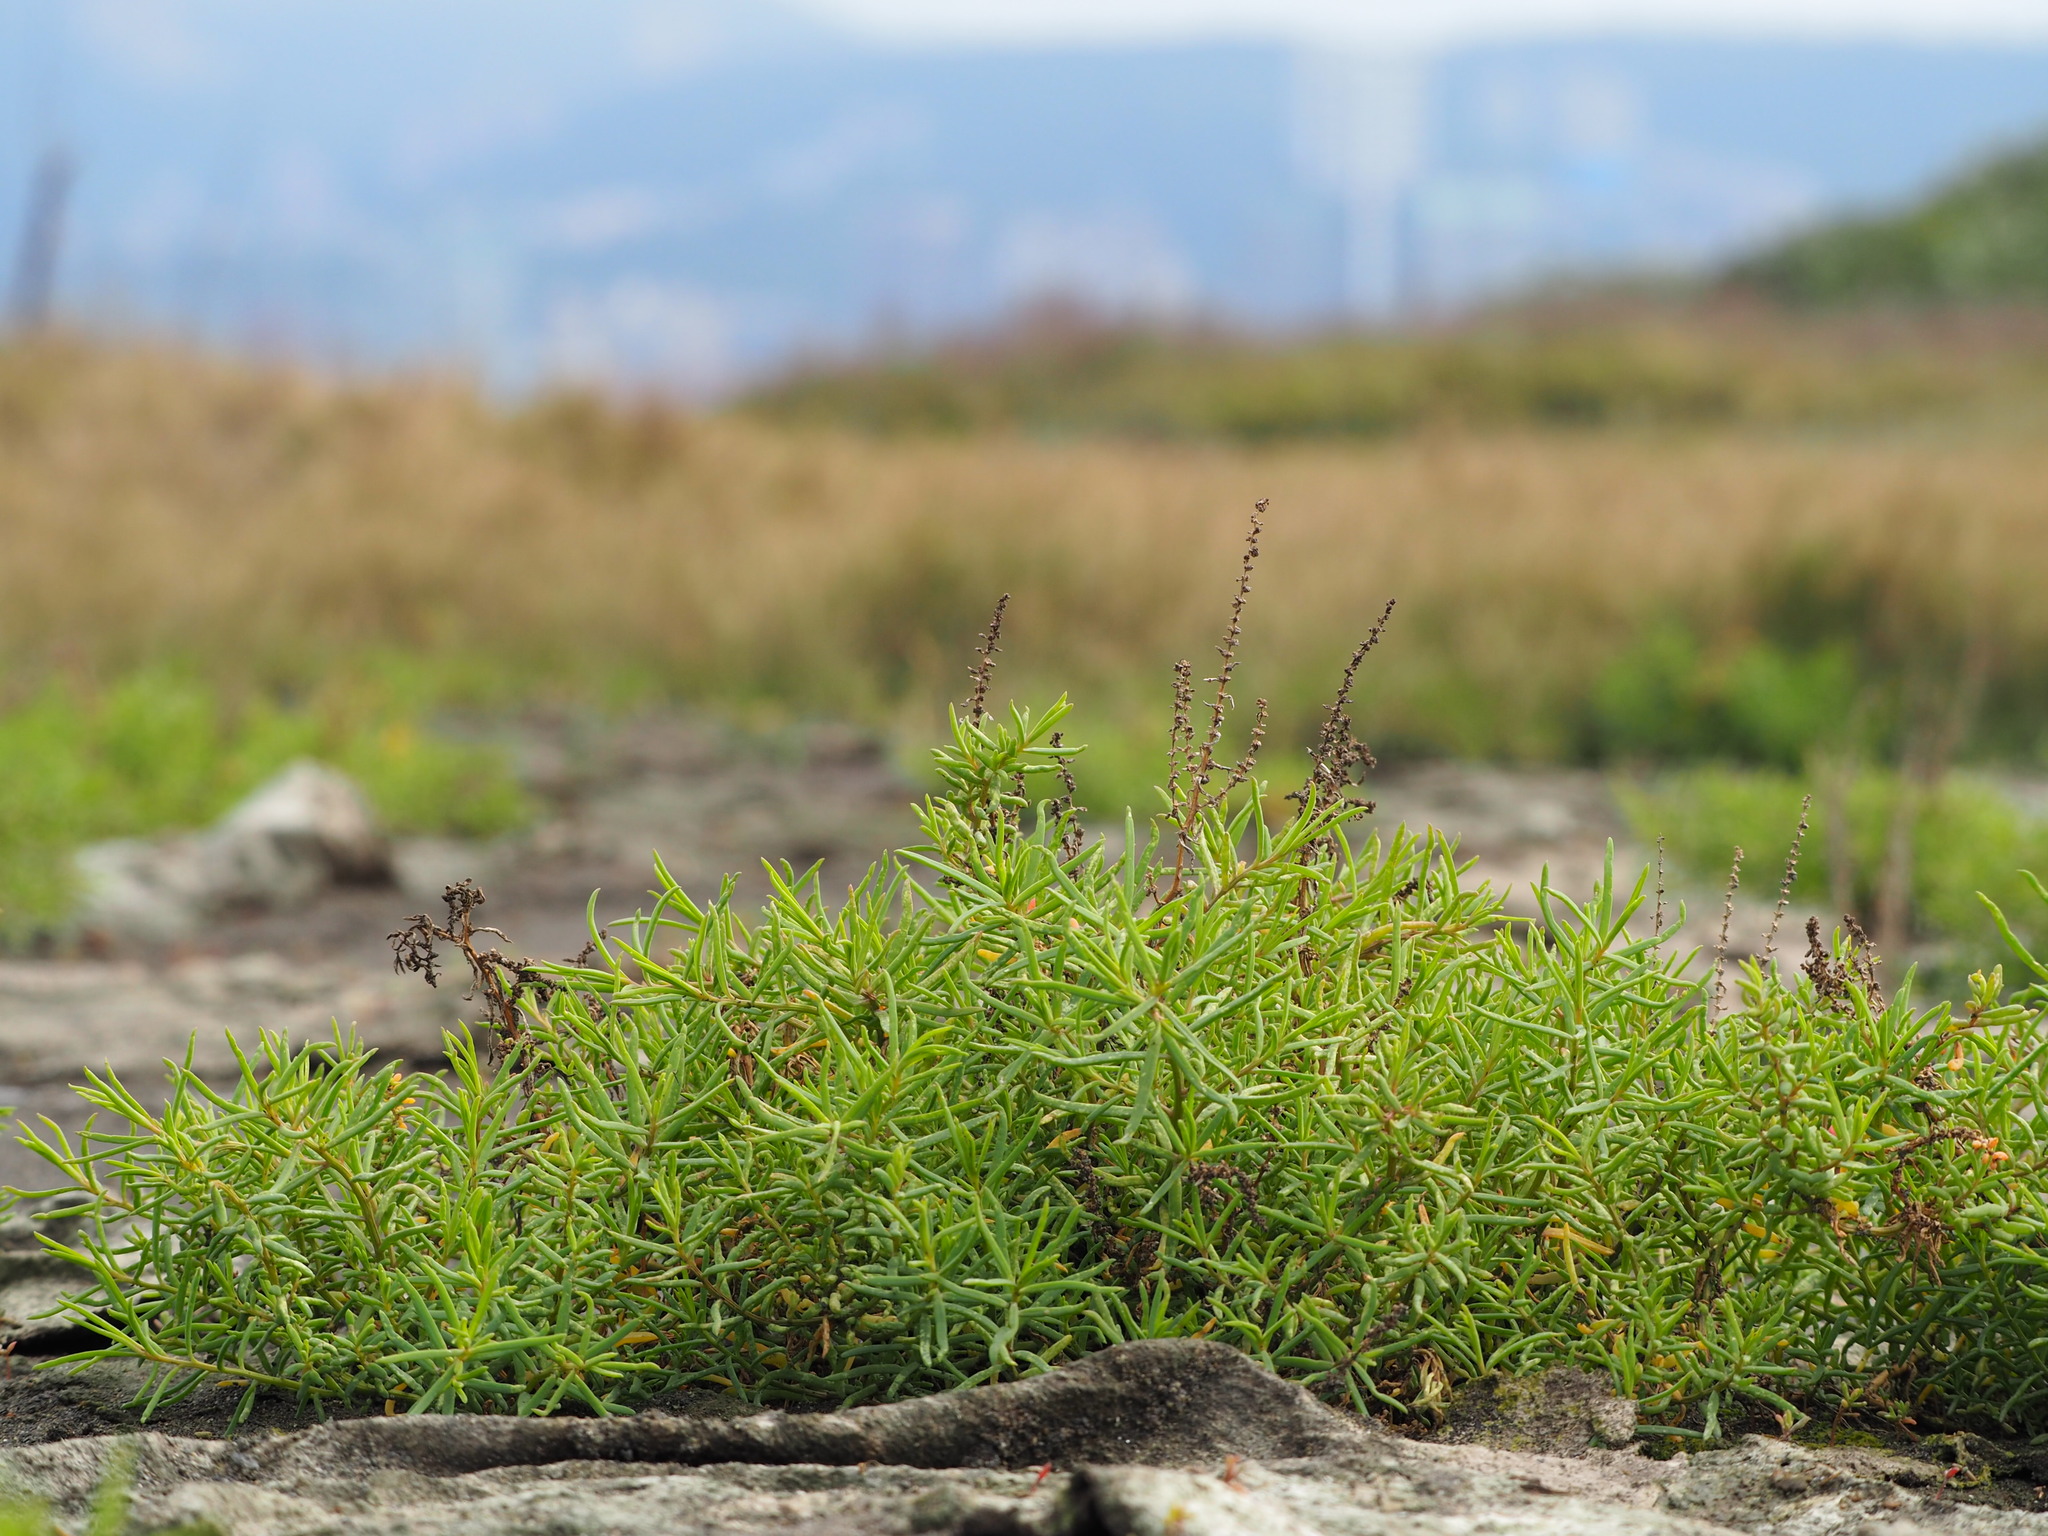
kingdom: Plantae
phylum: Tracheophyta
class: Magnoliopsida
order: Caryophyllales
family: Amaranthaceae
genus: Suaeda
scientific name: Suaeda maritima
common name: Annual sea-blite
